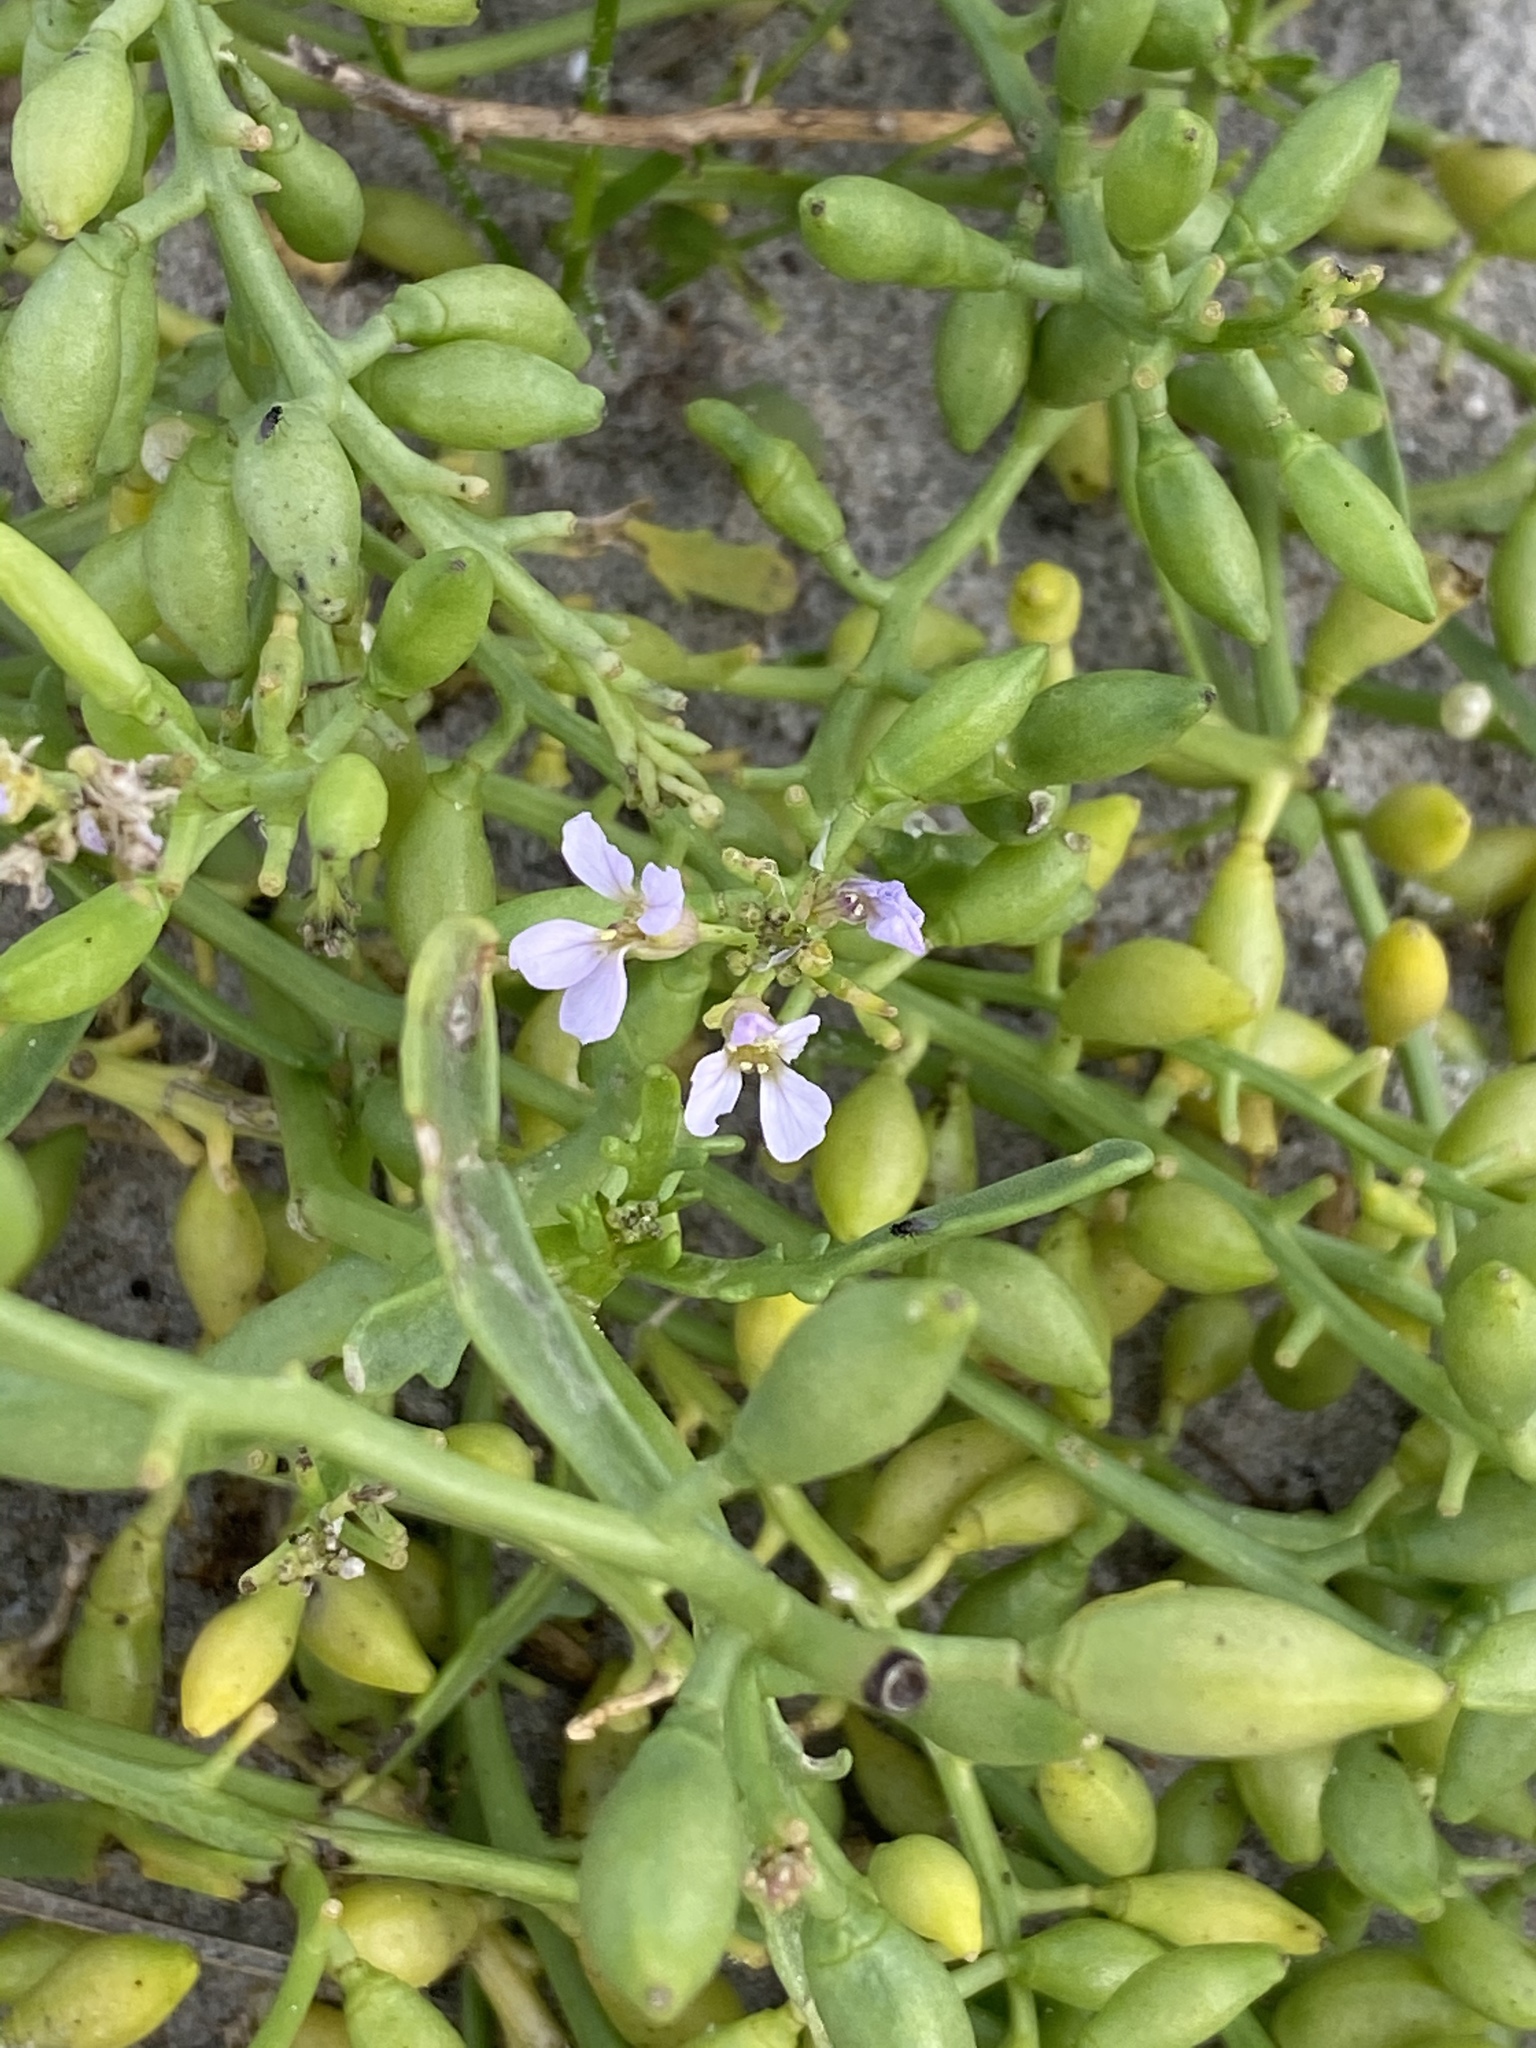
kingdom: Plantae
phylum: Tracheophyta
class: Magnoliopsida
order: Brassicales
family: Brassicaceae
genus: Cakile
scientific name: Cakile maritima
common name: Sea rocket
